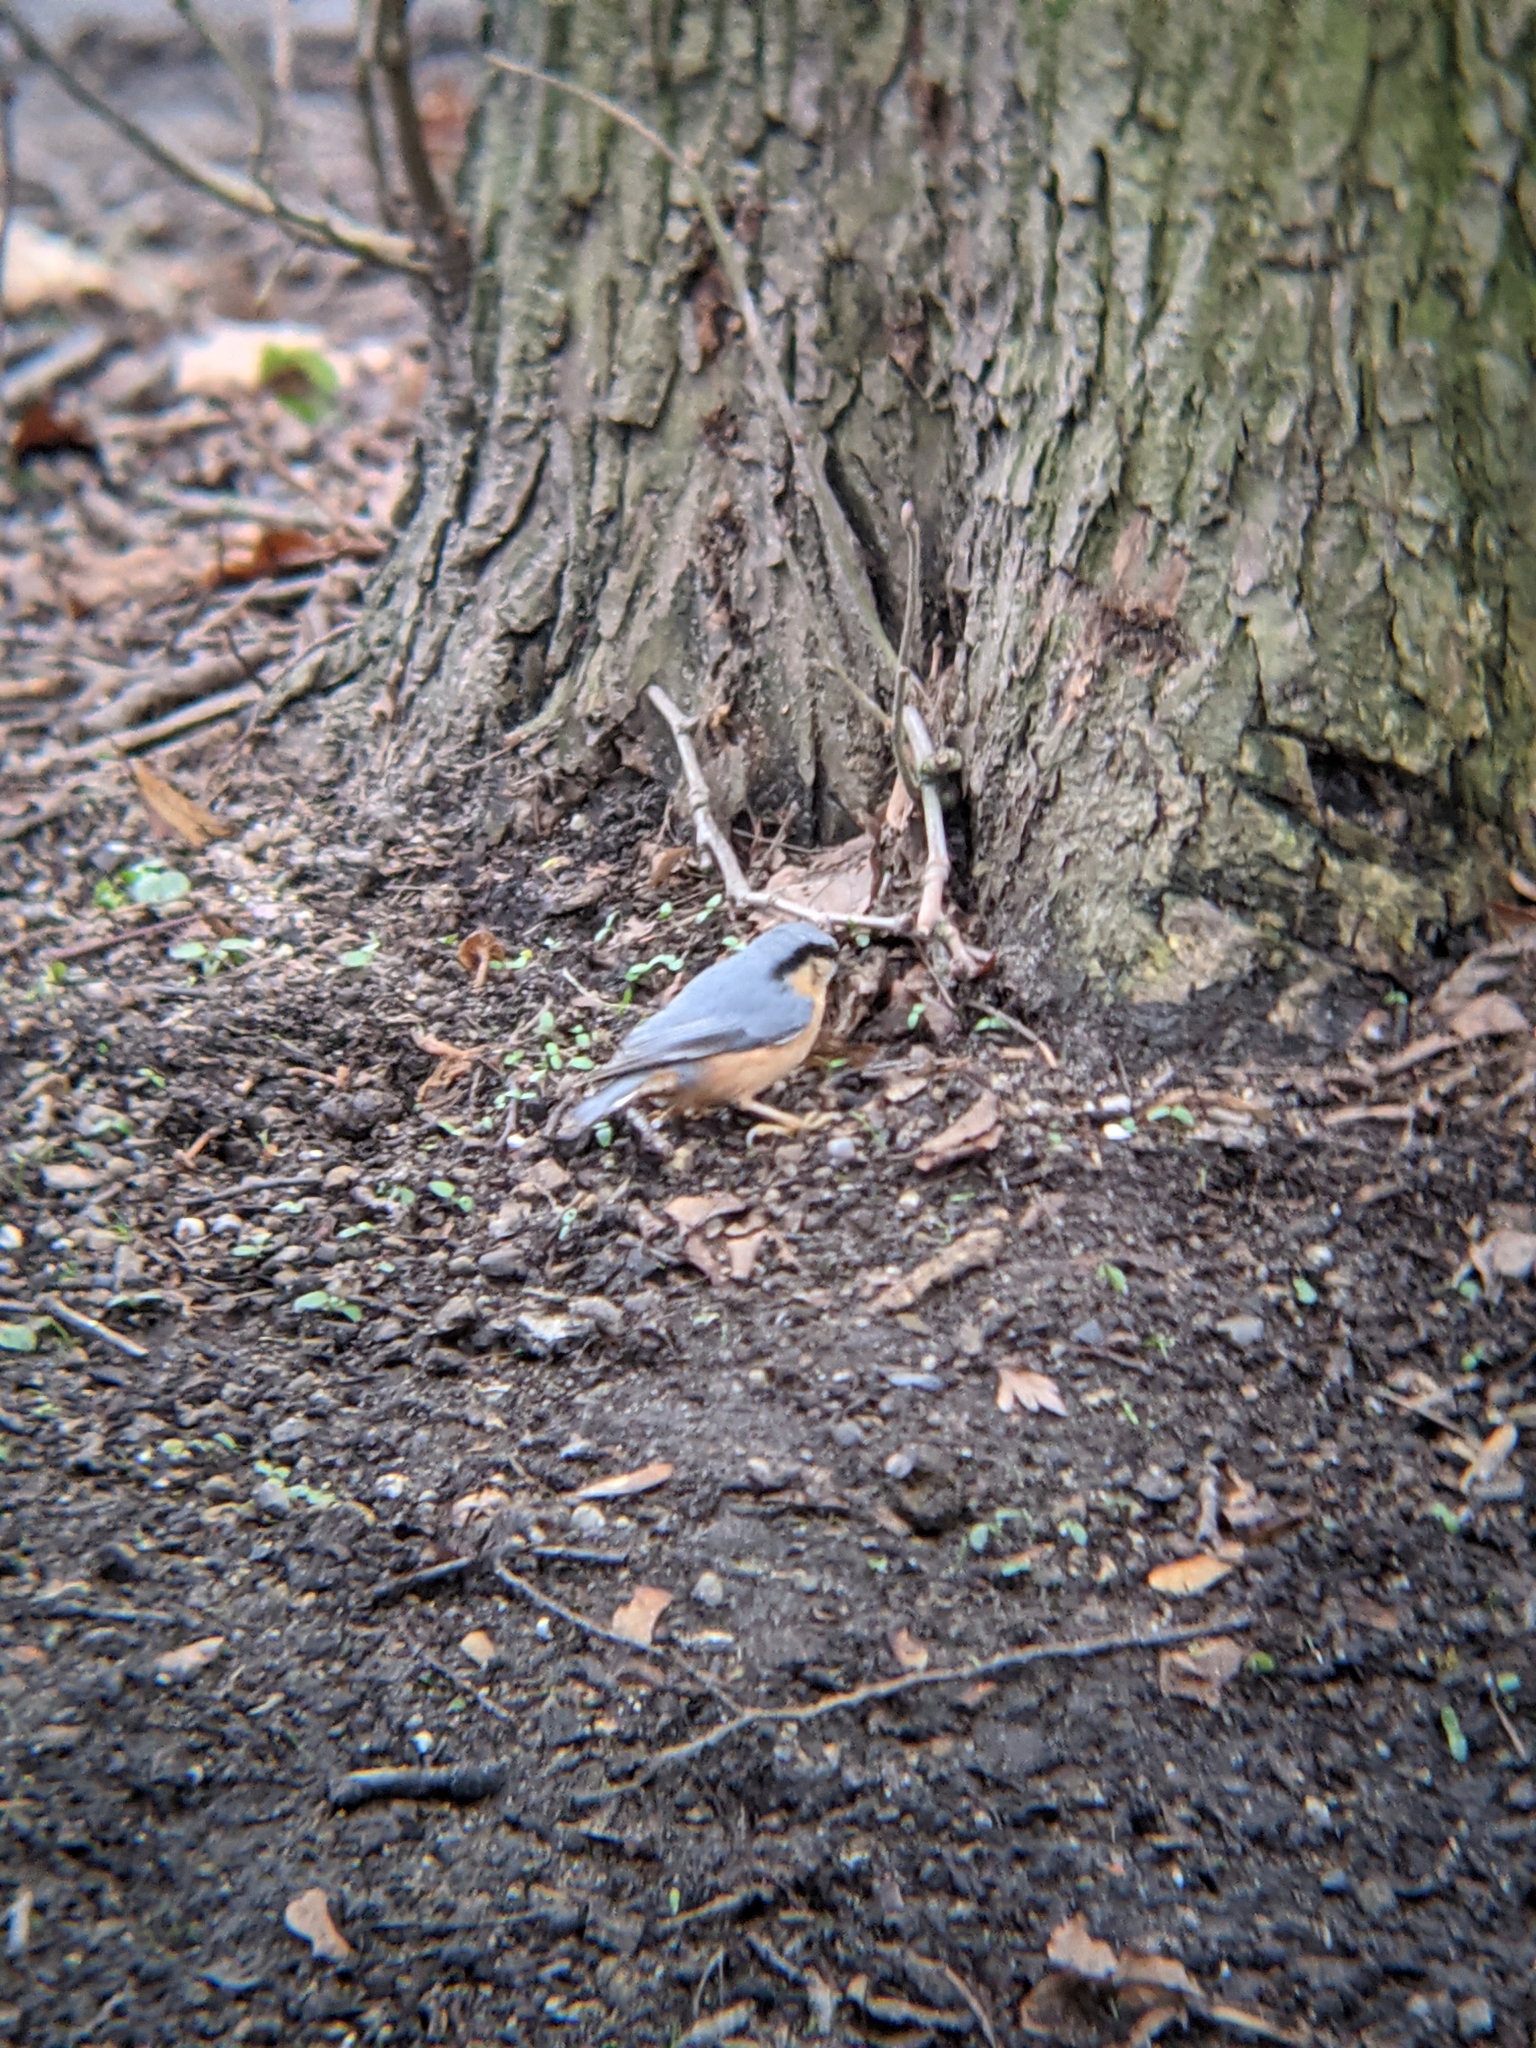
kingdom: Animalia
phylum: Chordata
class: Aves
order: Passeriformes
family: Sittidae
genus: Sitta
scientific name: Sitta europaea
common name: Eurasian nuthatch
